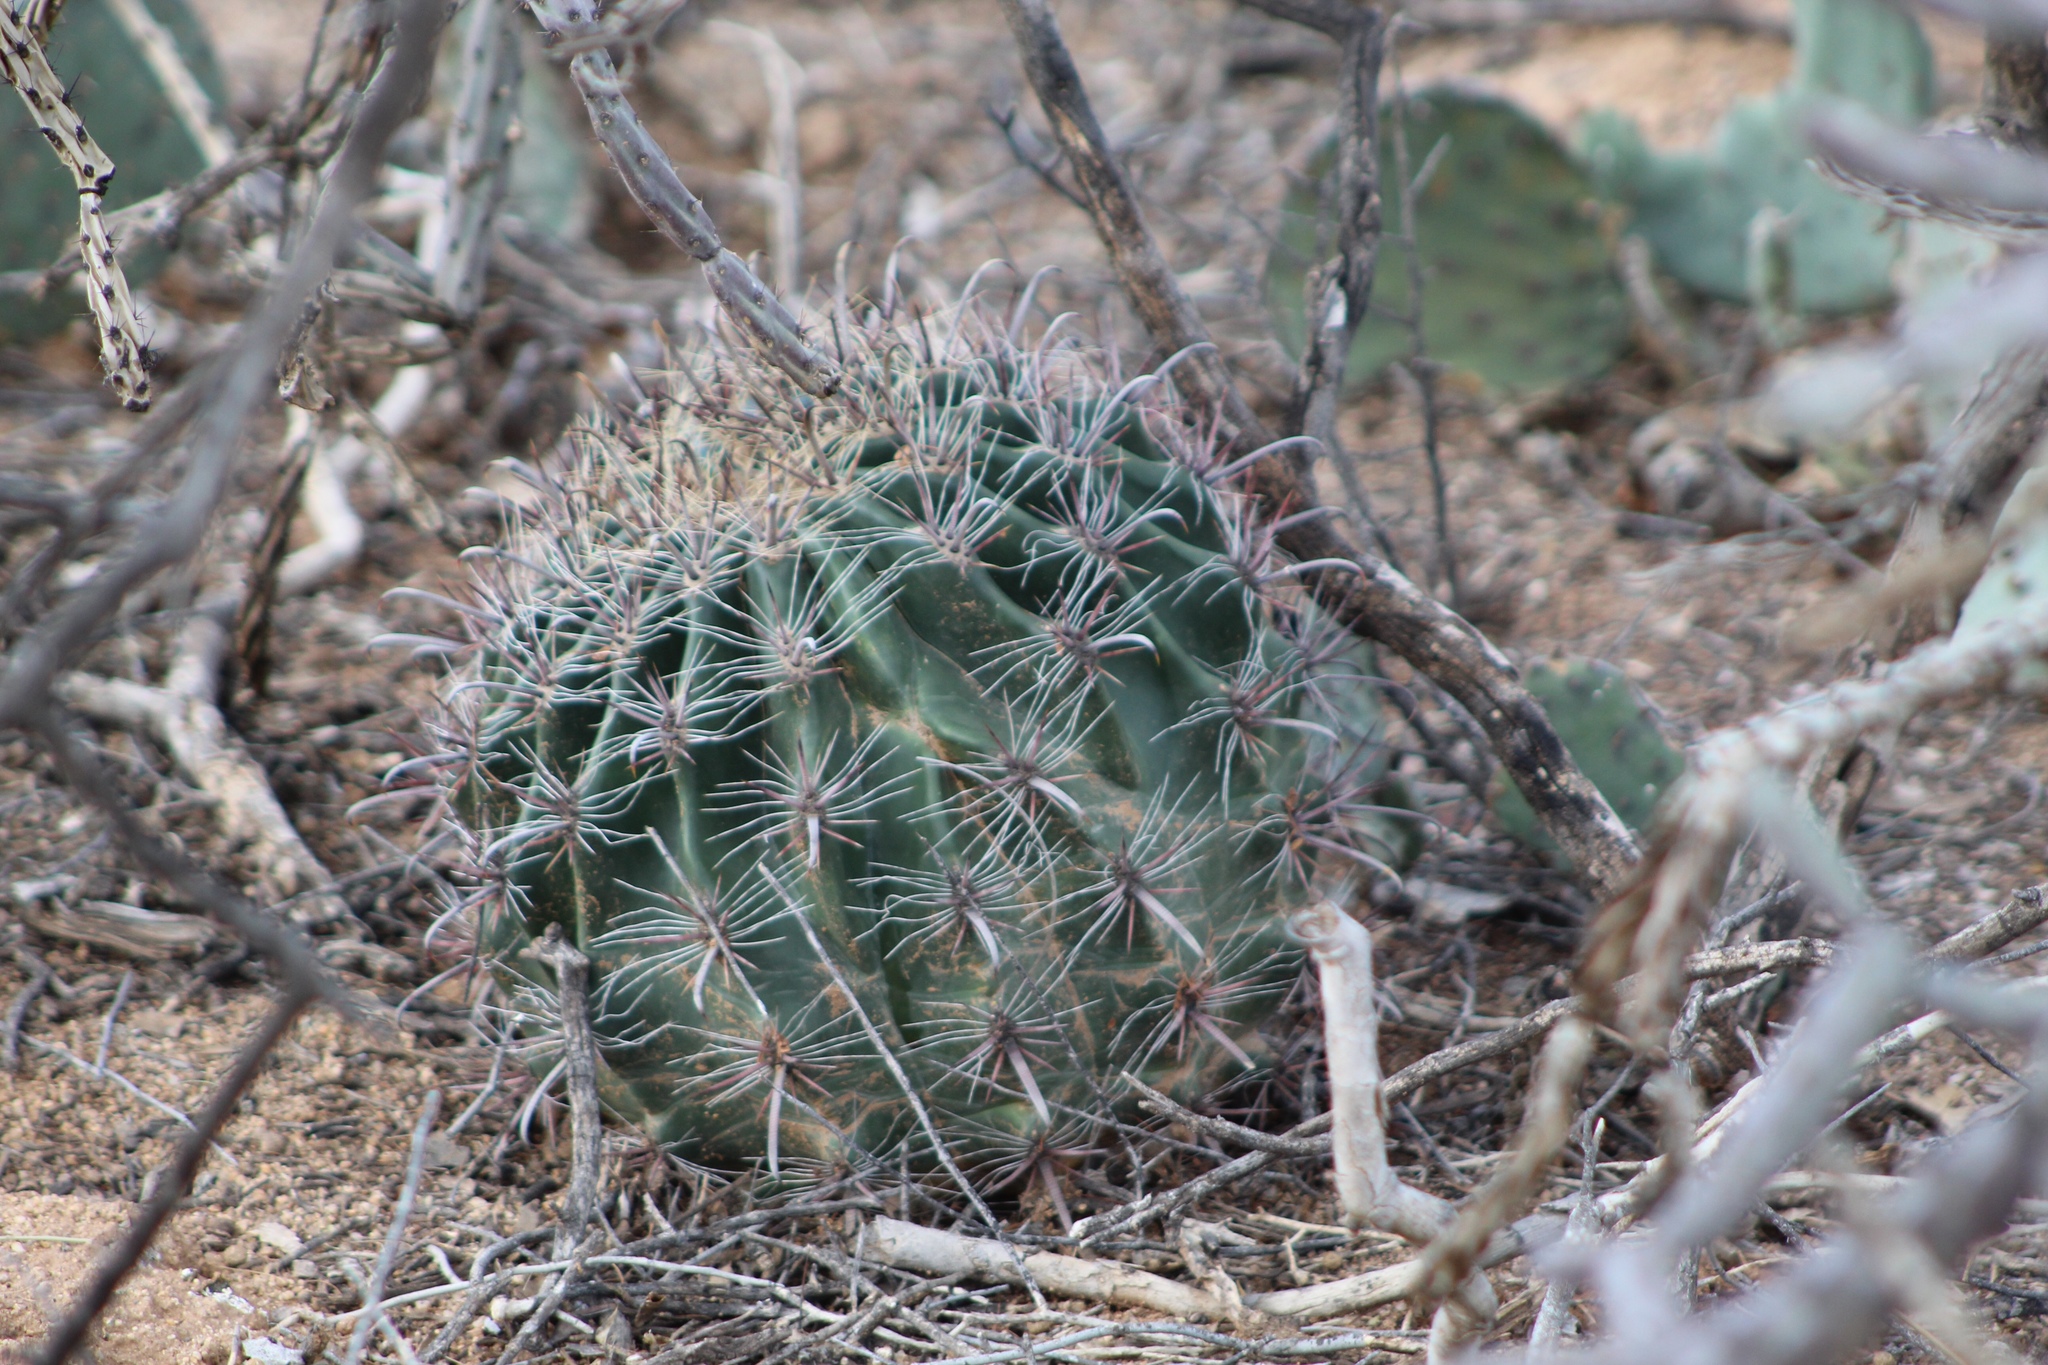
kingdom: Plantae
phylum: Tracheophyta
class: Magnoliopsida
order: Caryophyllales
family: Cactaceae
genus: Ferocactus
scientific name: Ferocactus wislizeni
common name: Candy barrel cactus
